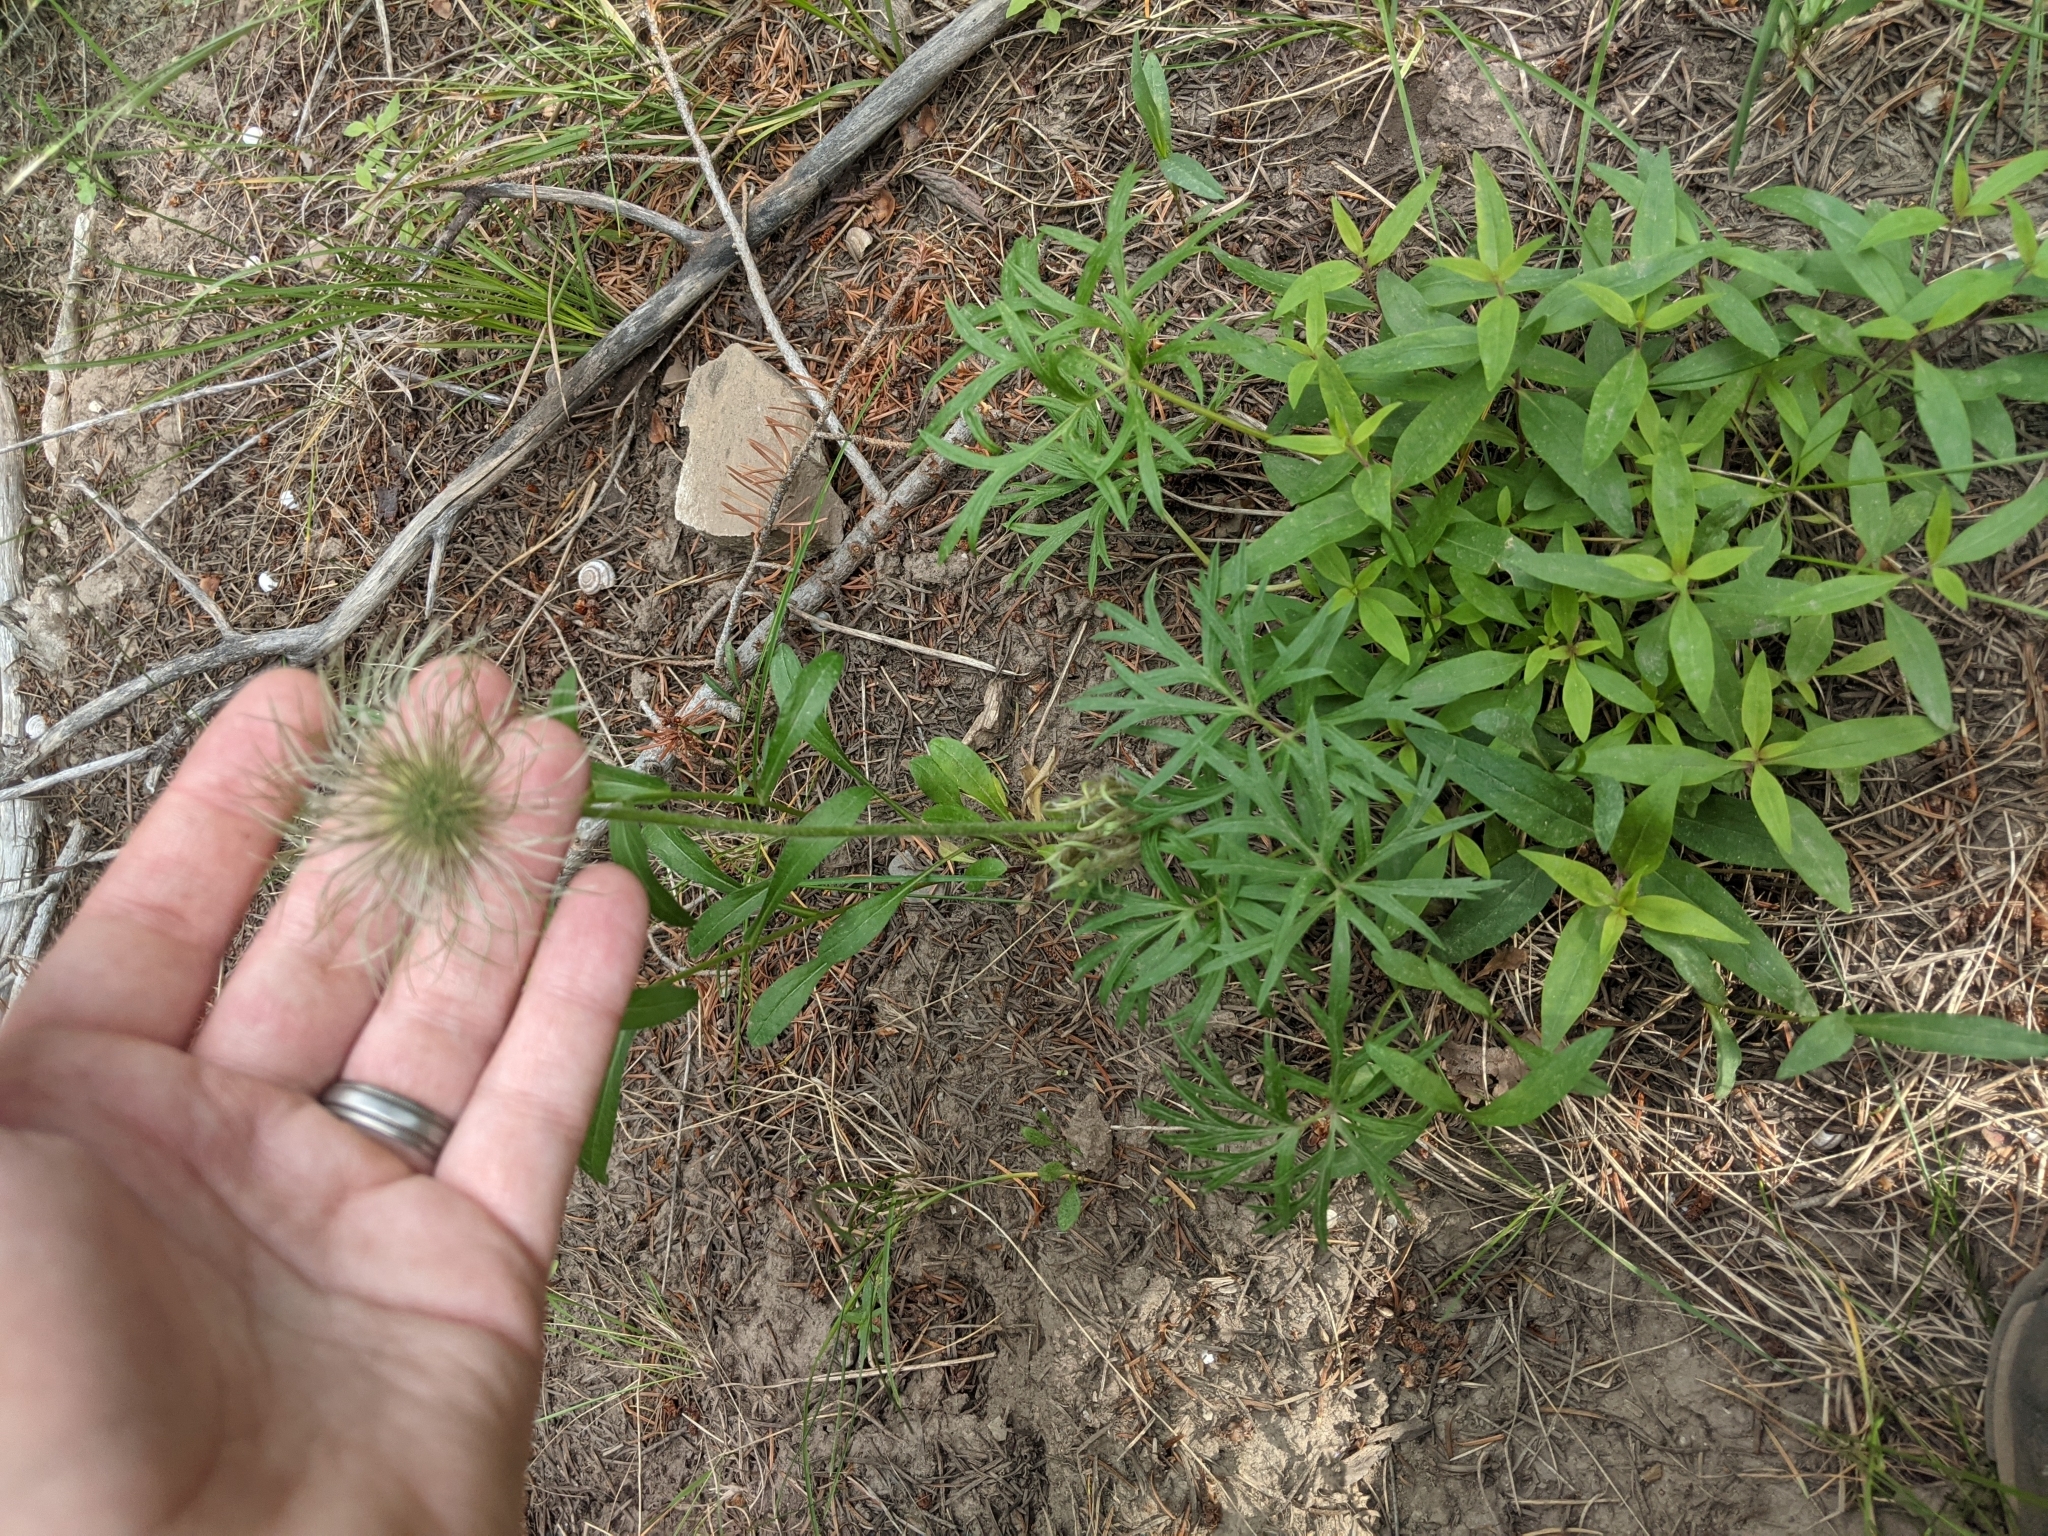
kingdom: Plantae
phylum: Tracheophyta
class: Magnoliopsida
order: Ranunculales
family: Ranunculaceae
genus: Pulsatilla
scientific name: Pulsatilla nuttalliana
